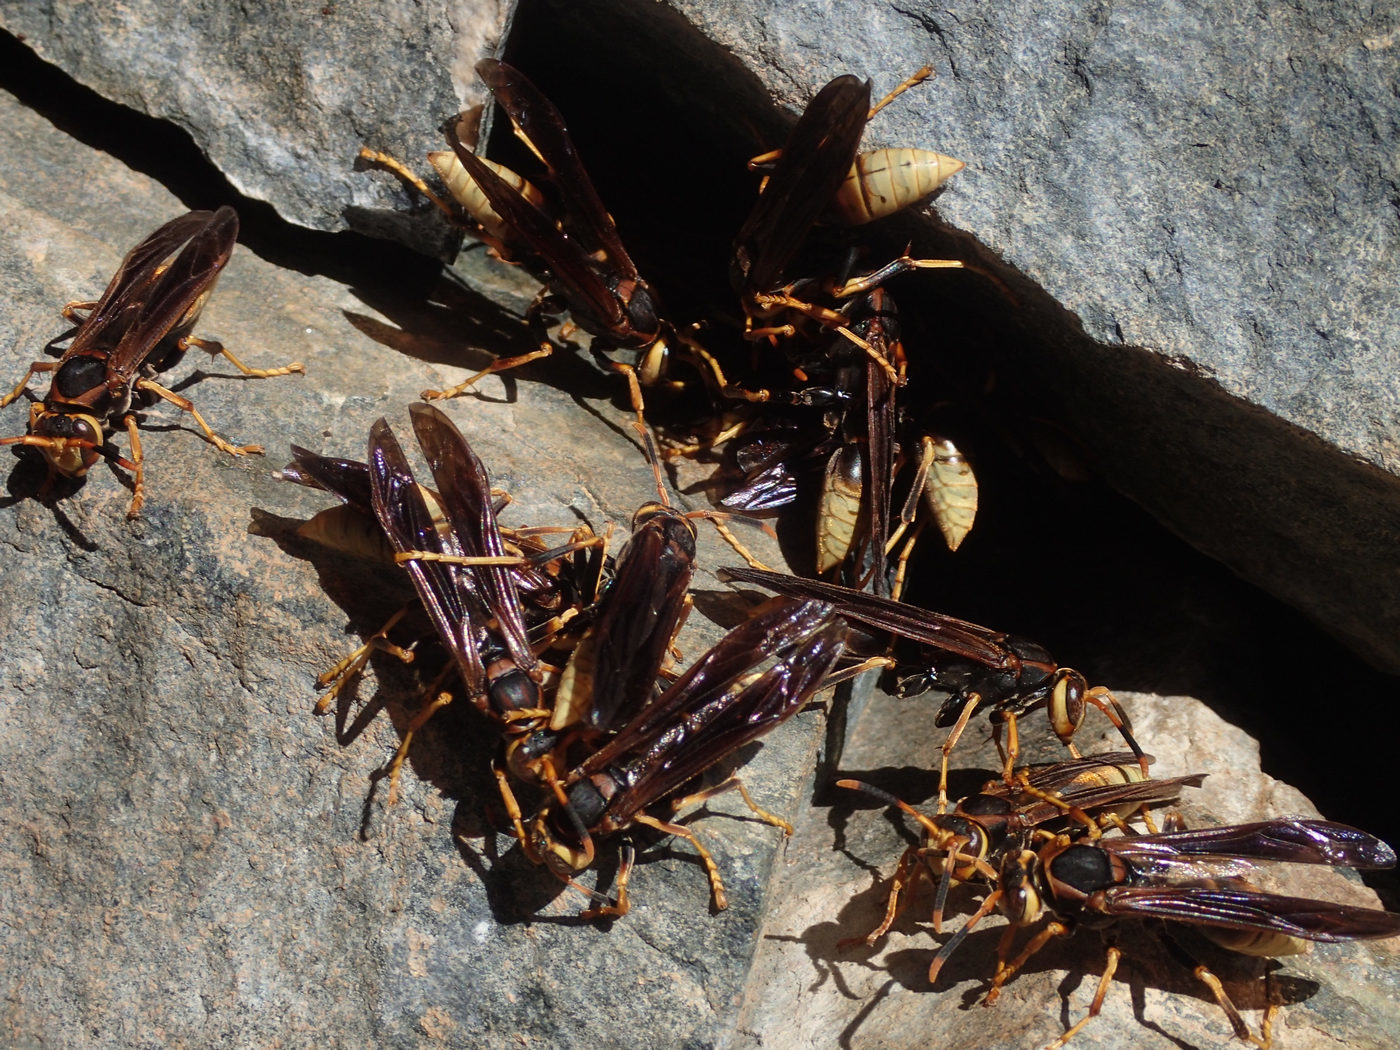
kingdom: Animalia
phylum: Arthropoda
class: Insecta
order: Hymenoptera
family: Eumenidae
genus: Polistes
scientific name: Polistes comanchus
